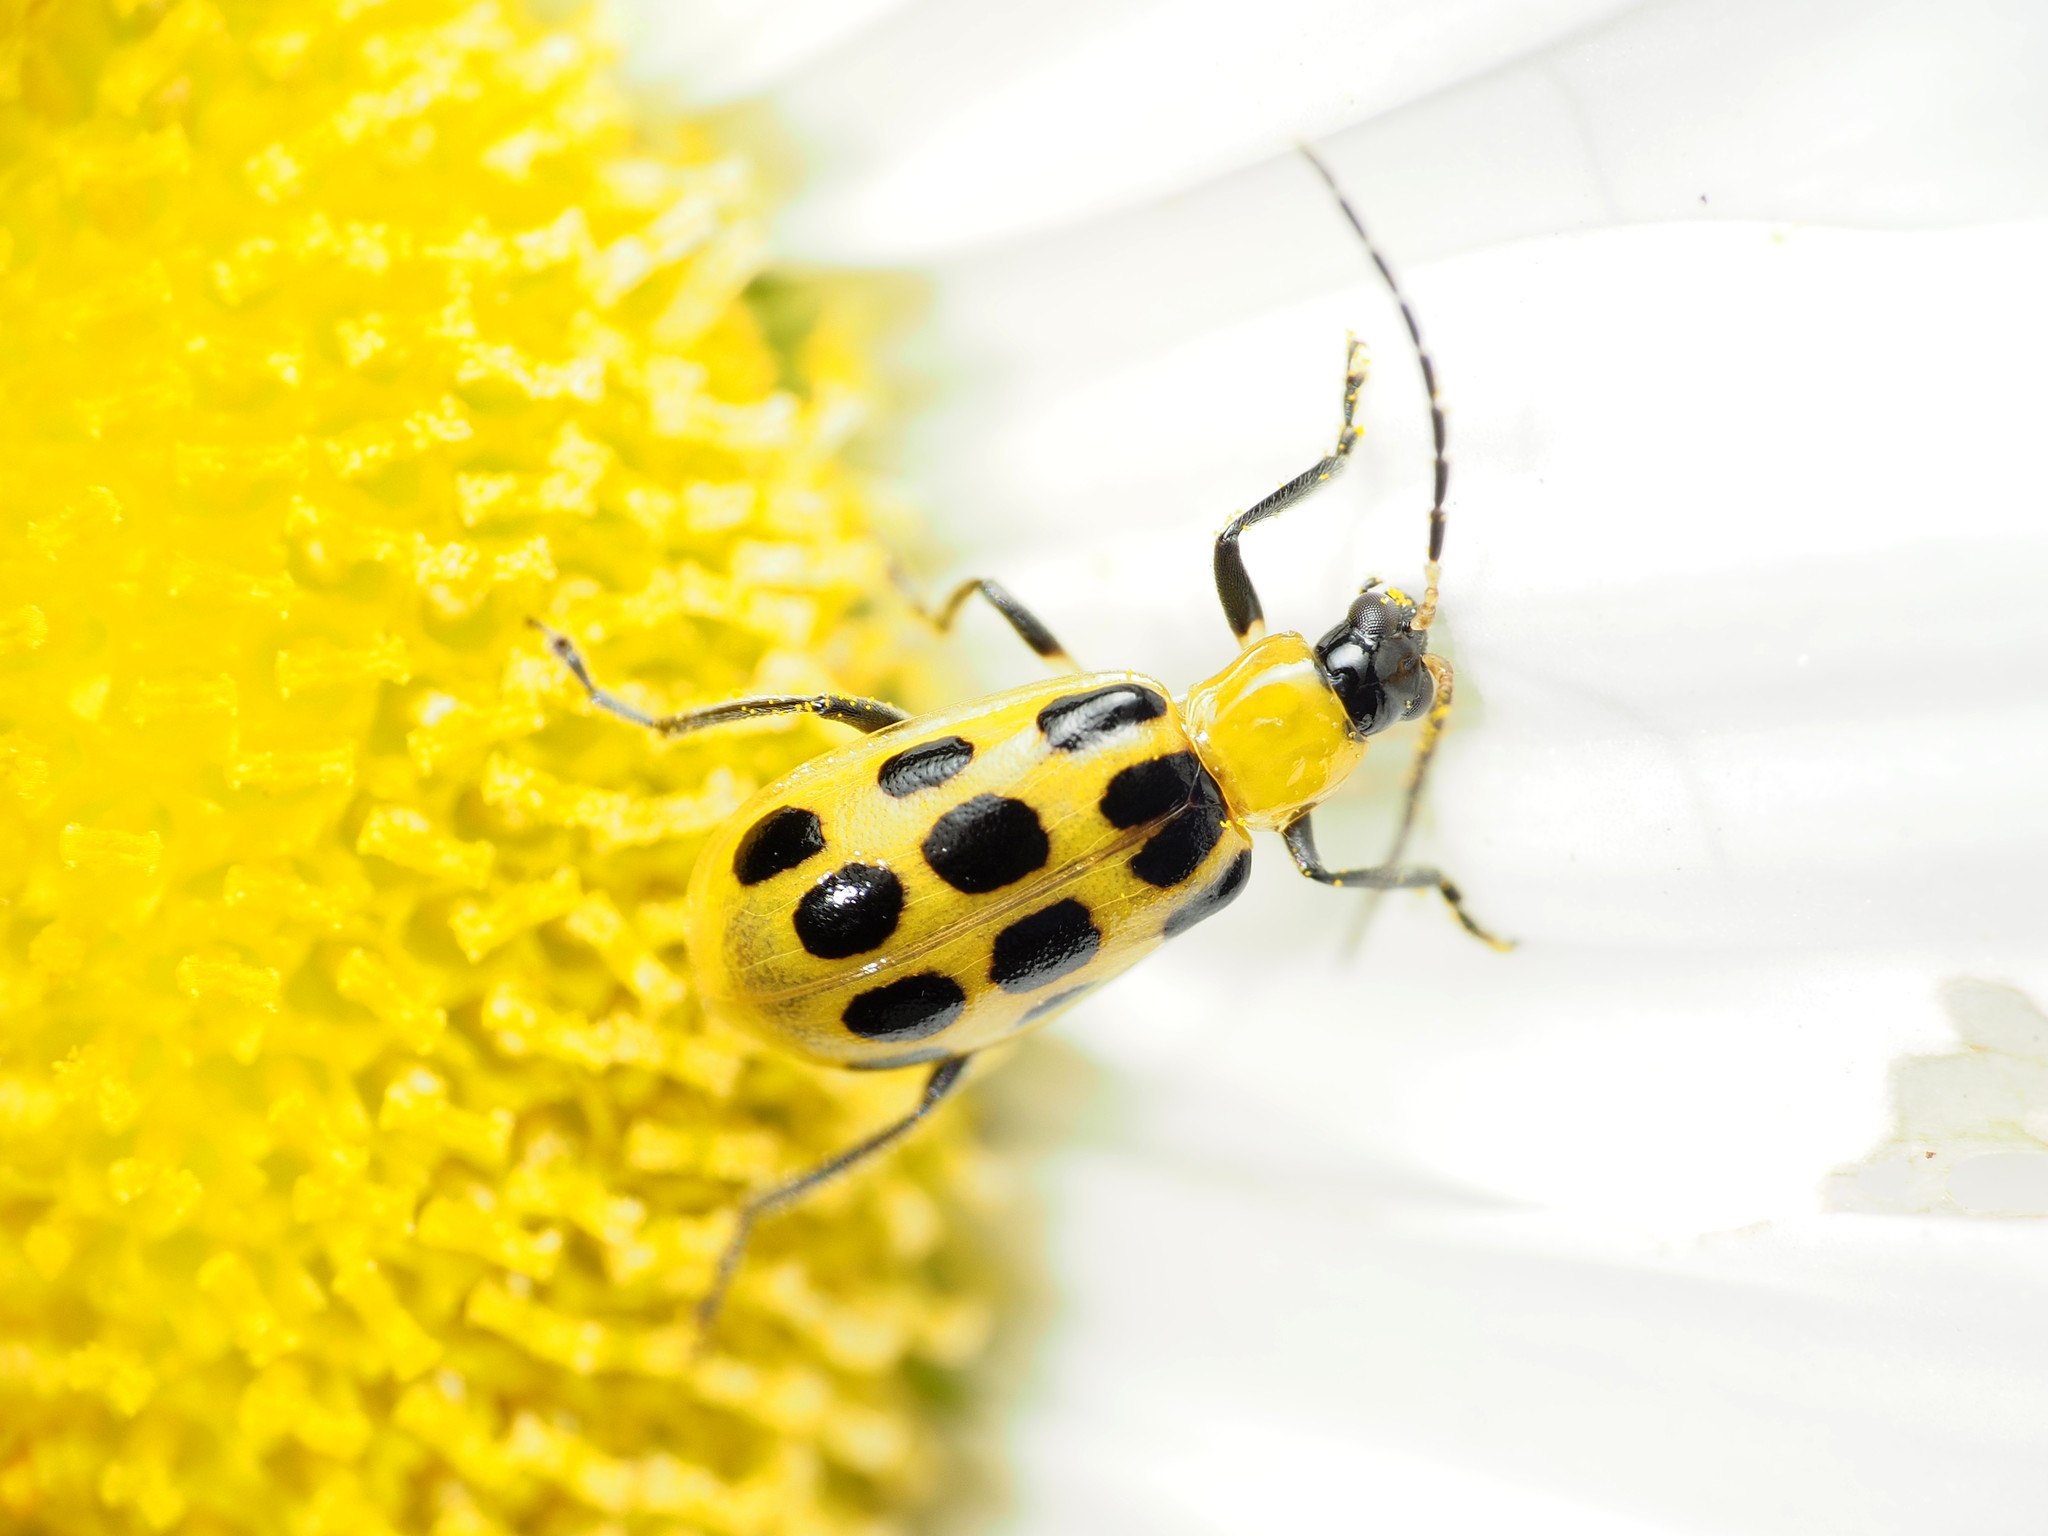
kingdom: Animalia
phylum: Arthropoda
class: Insecta
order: Coleoptera
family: Chrysomelidae
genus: Diabrotica
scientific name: Diabrotica undecimpunctata
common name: Spotted cucumber beetle
